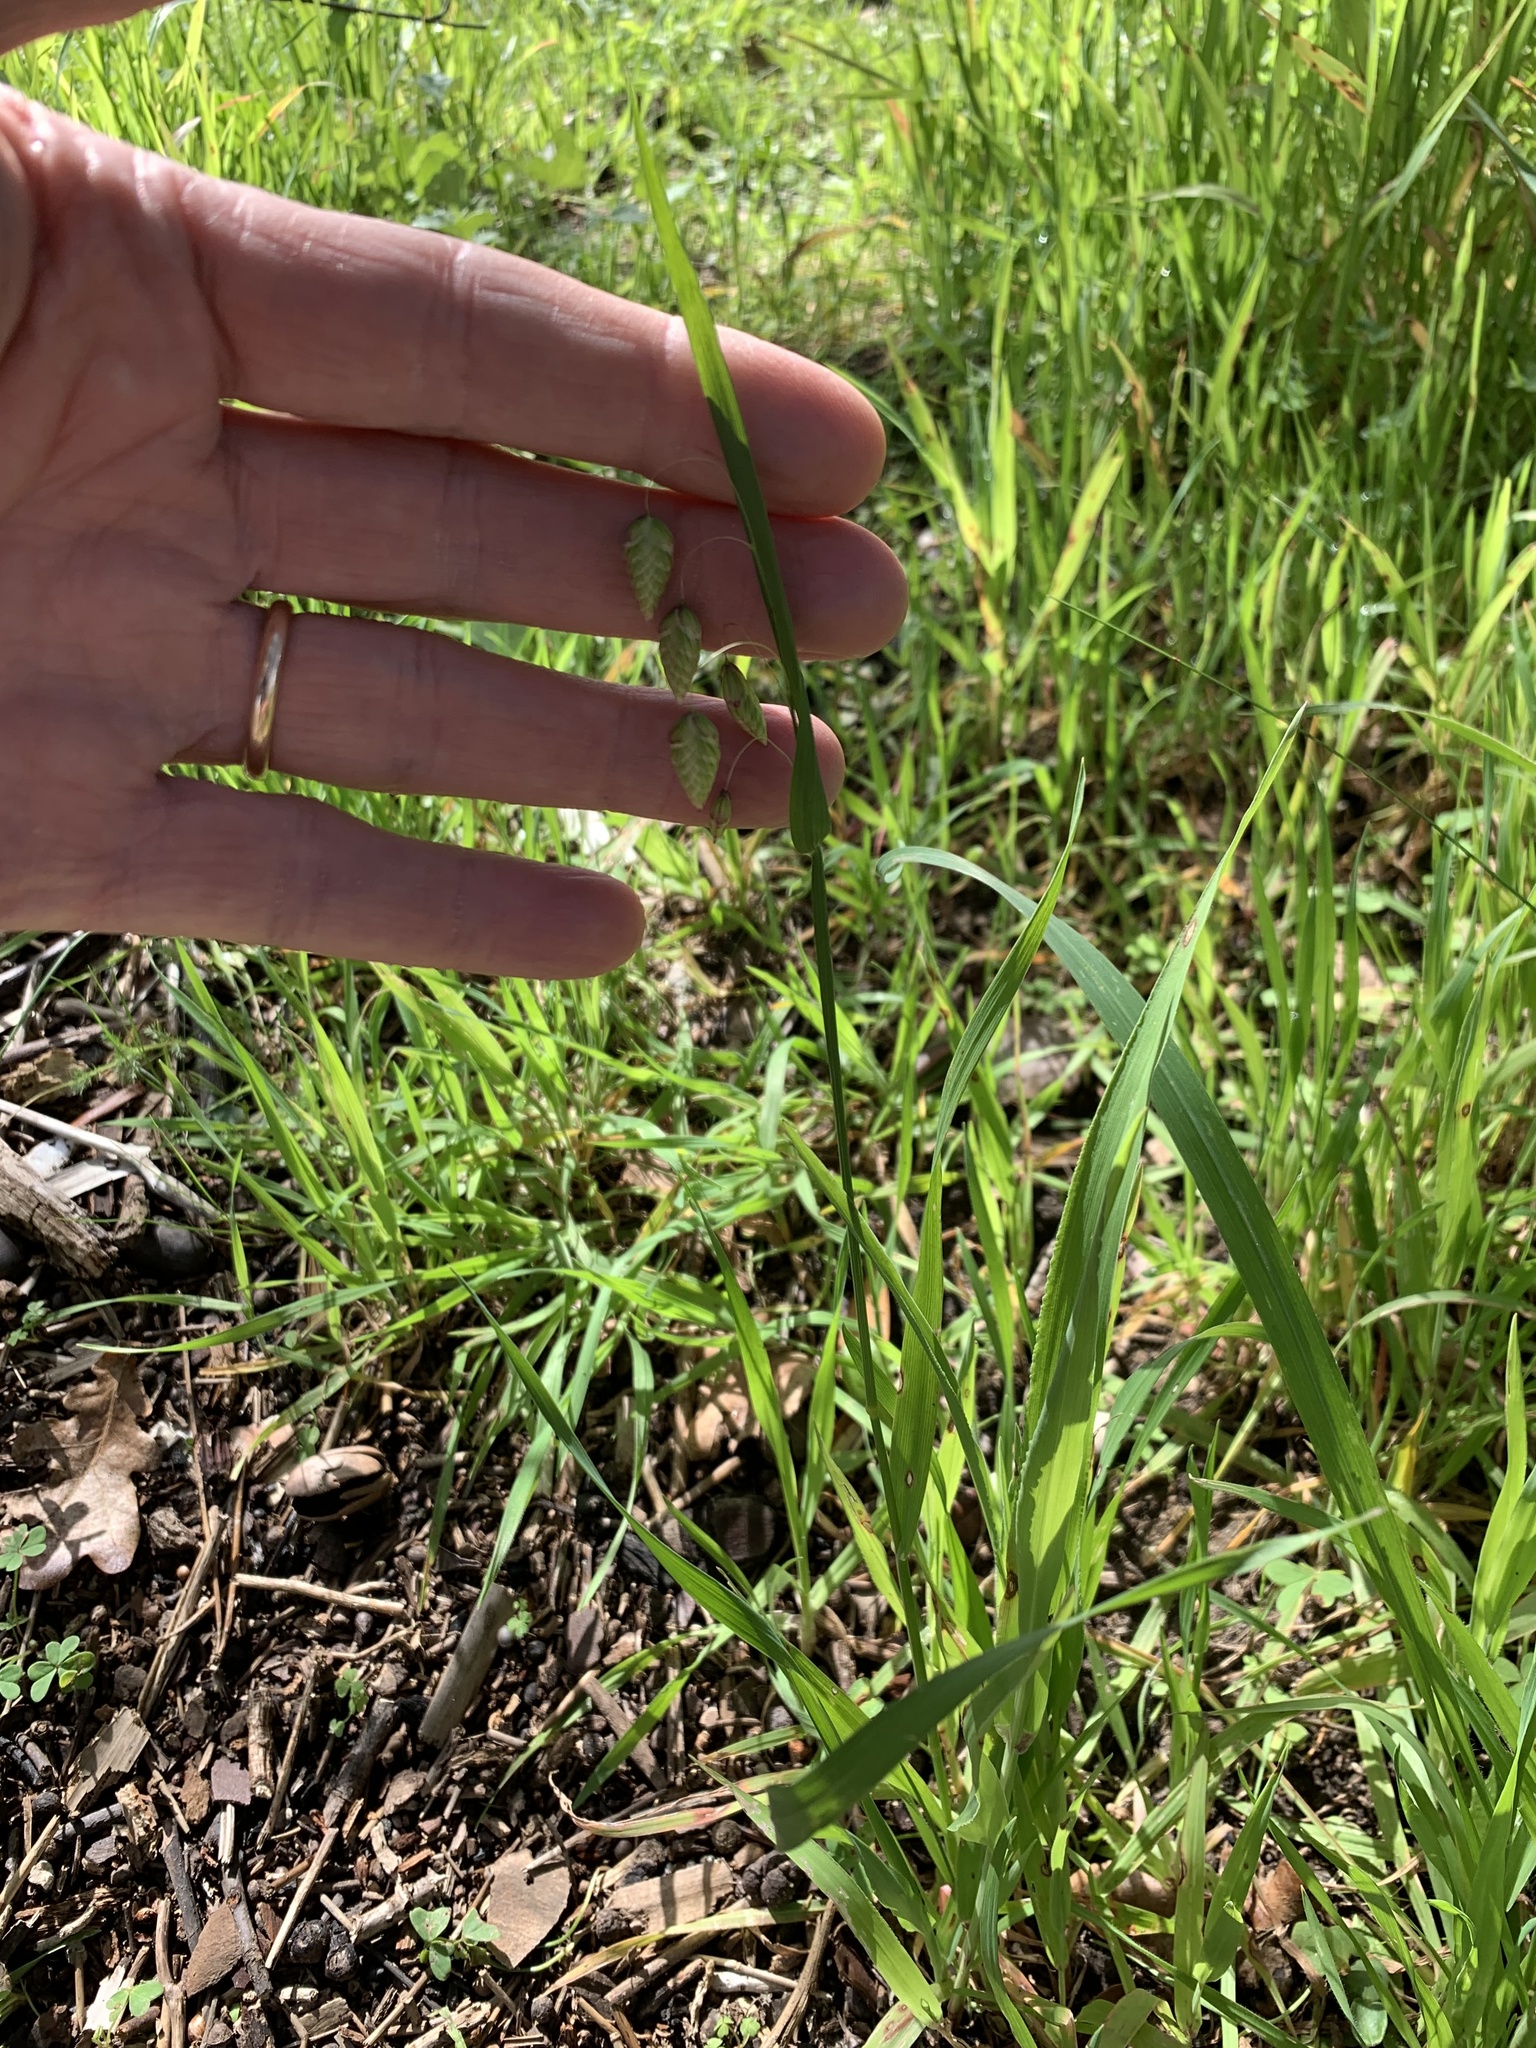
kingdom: Plantae
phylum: Tracheophyta
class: Liliopsida
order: Poales
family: Poaceae
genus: Briza
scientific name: Briza maxima
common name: Big quakinggrass
